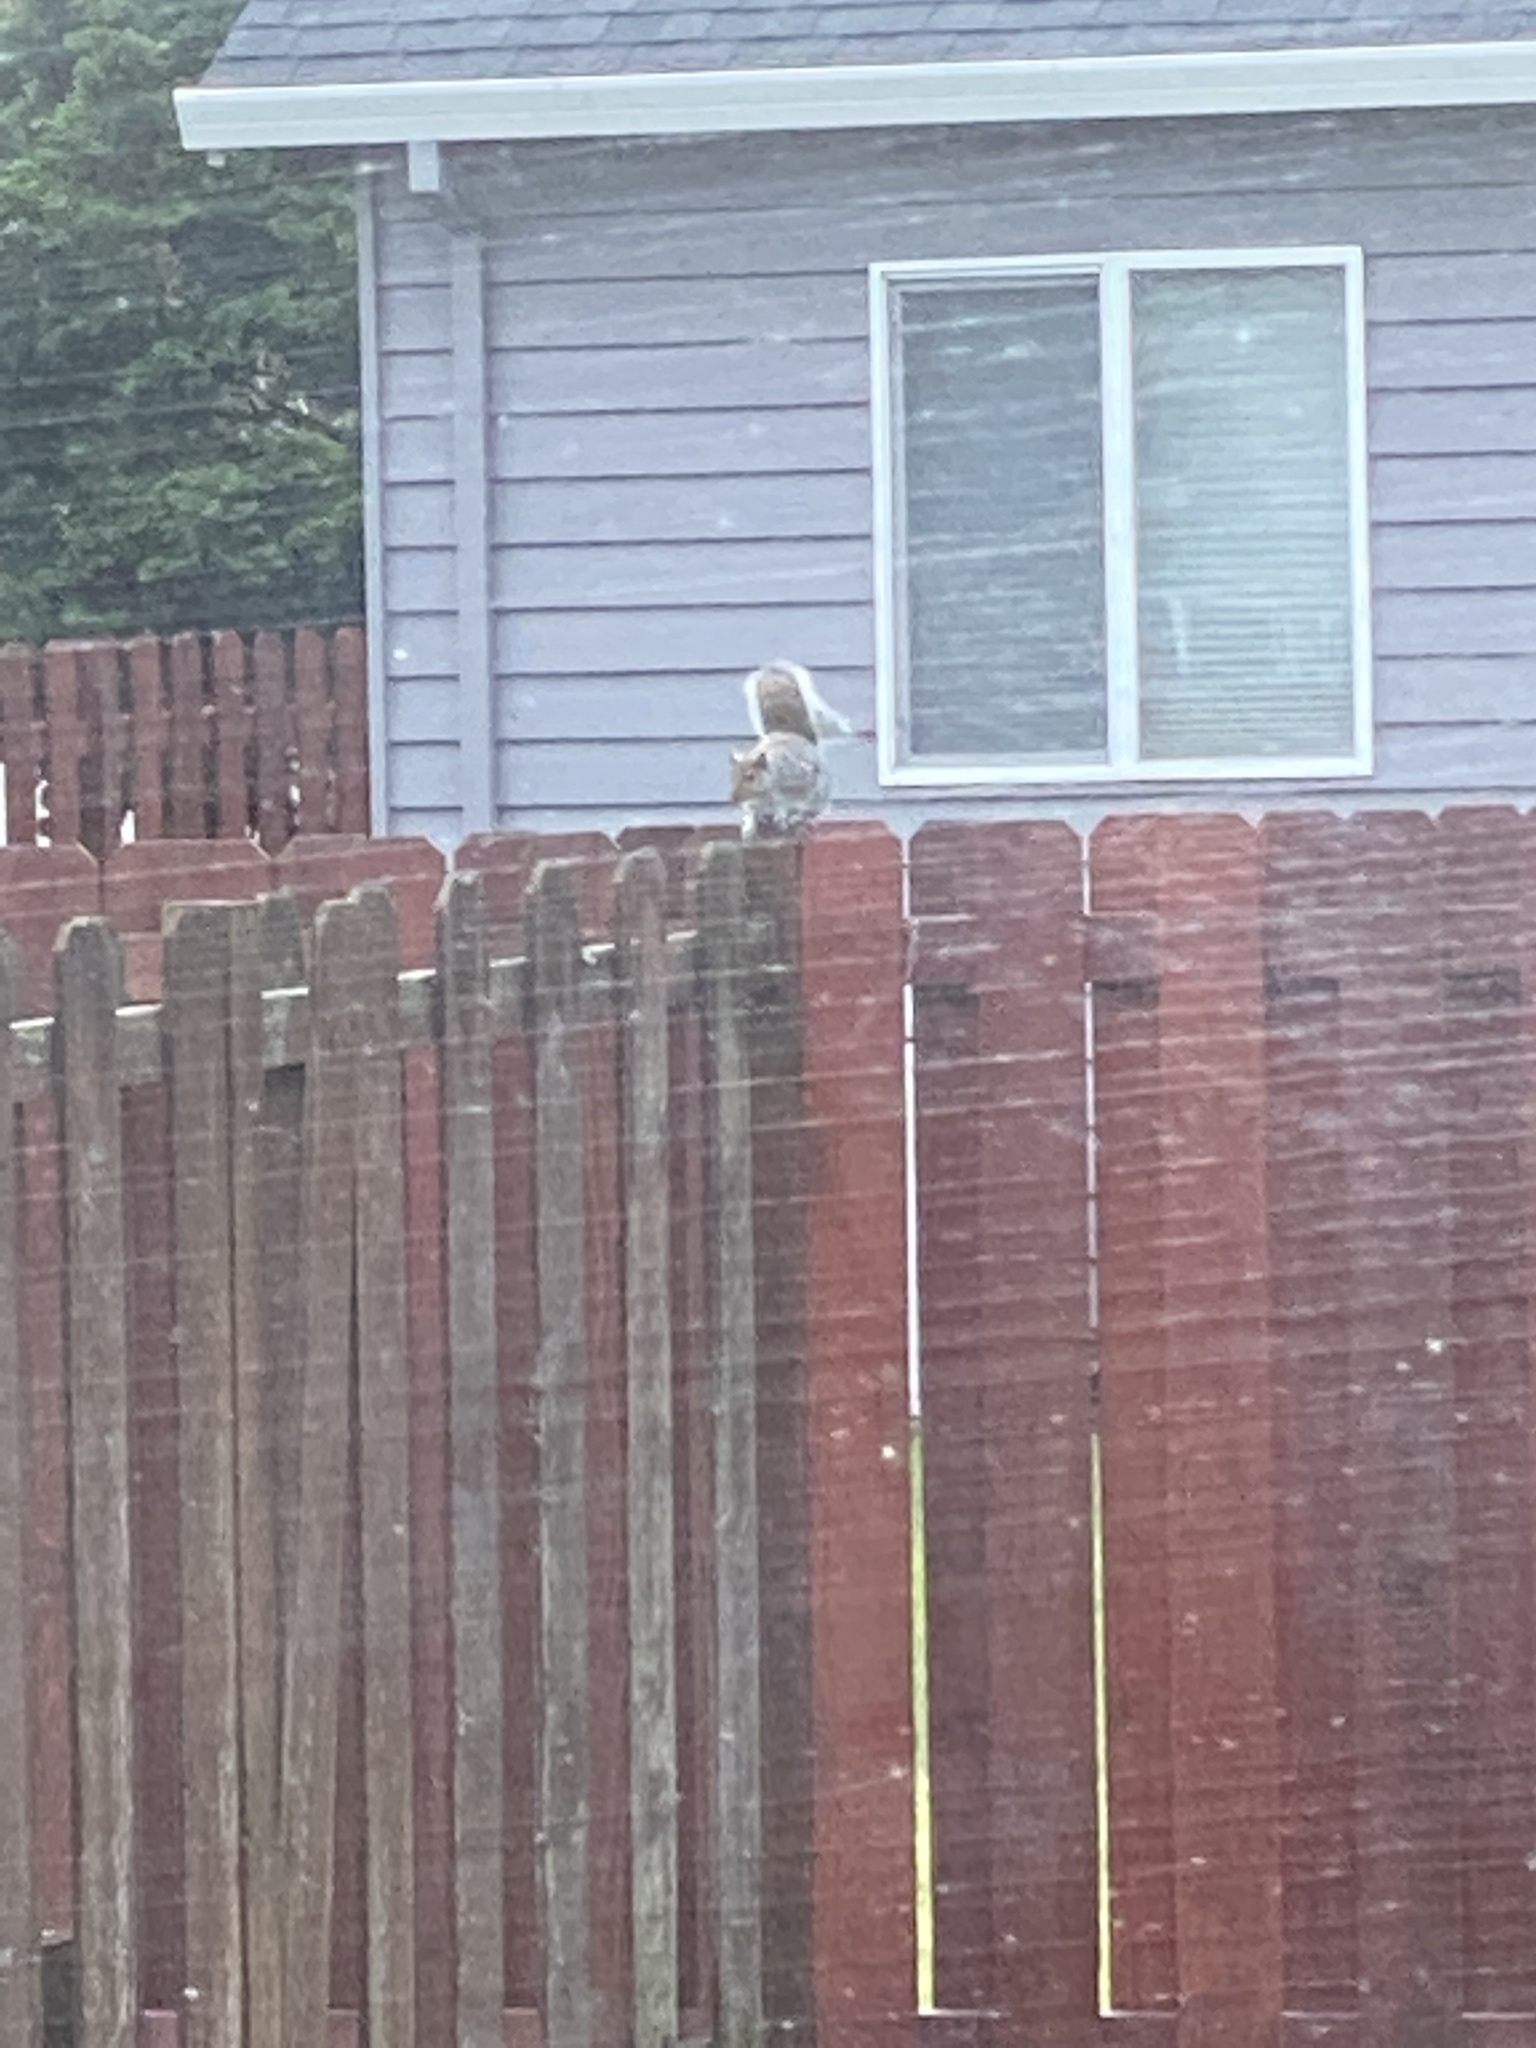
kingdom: Animalia
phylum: Chordata
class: Mammalia
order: Rodentia
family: Sciuridae
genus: Sciurus
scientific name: Sciurus carolinensis
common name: Eastern gray squirrel
